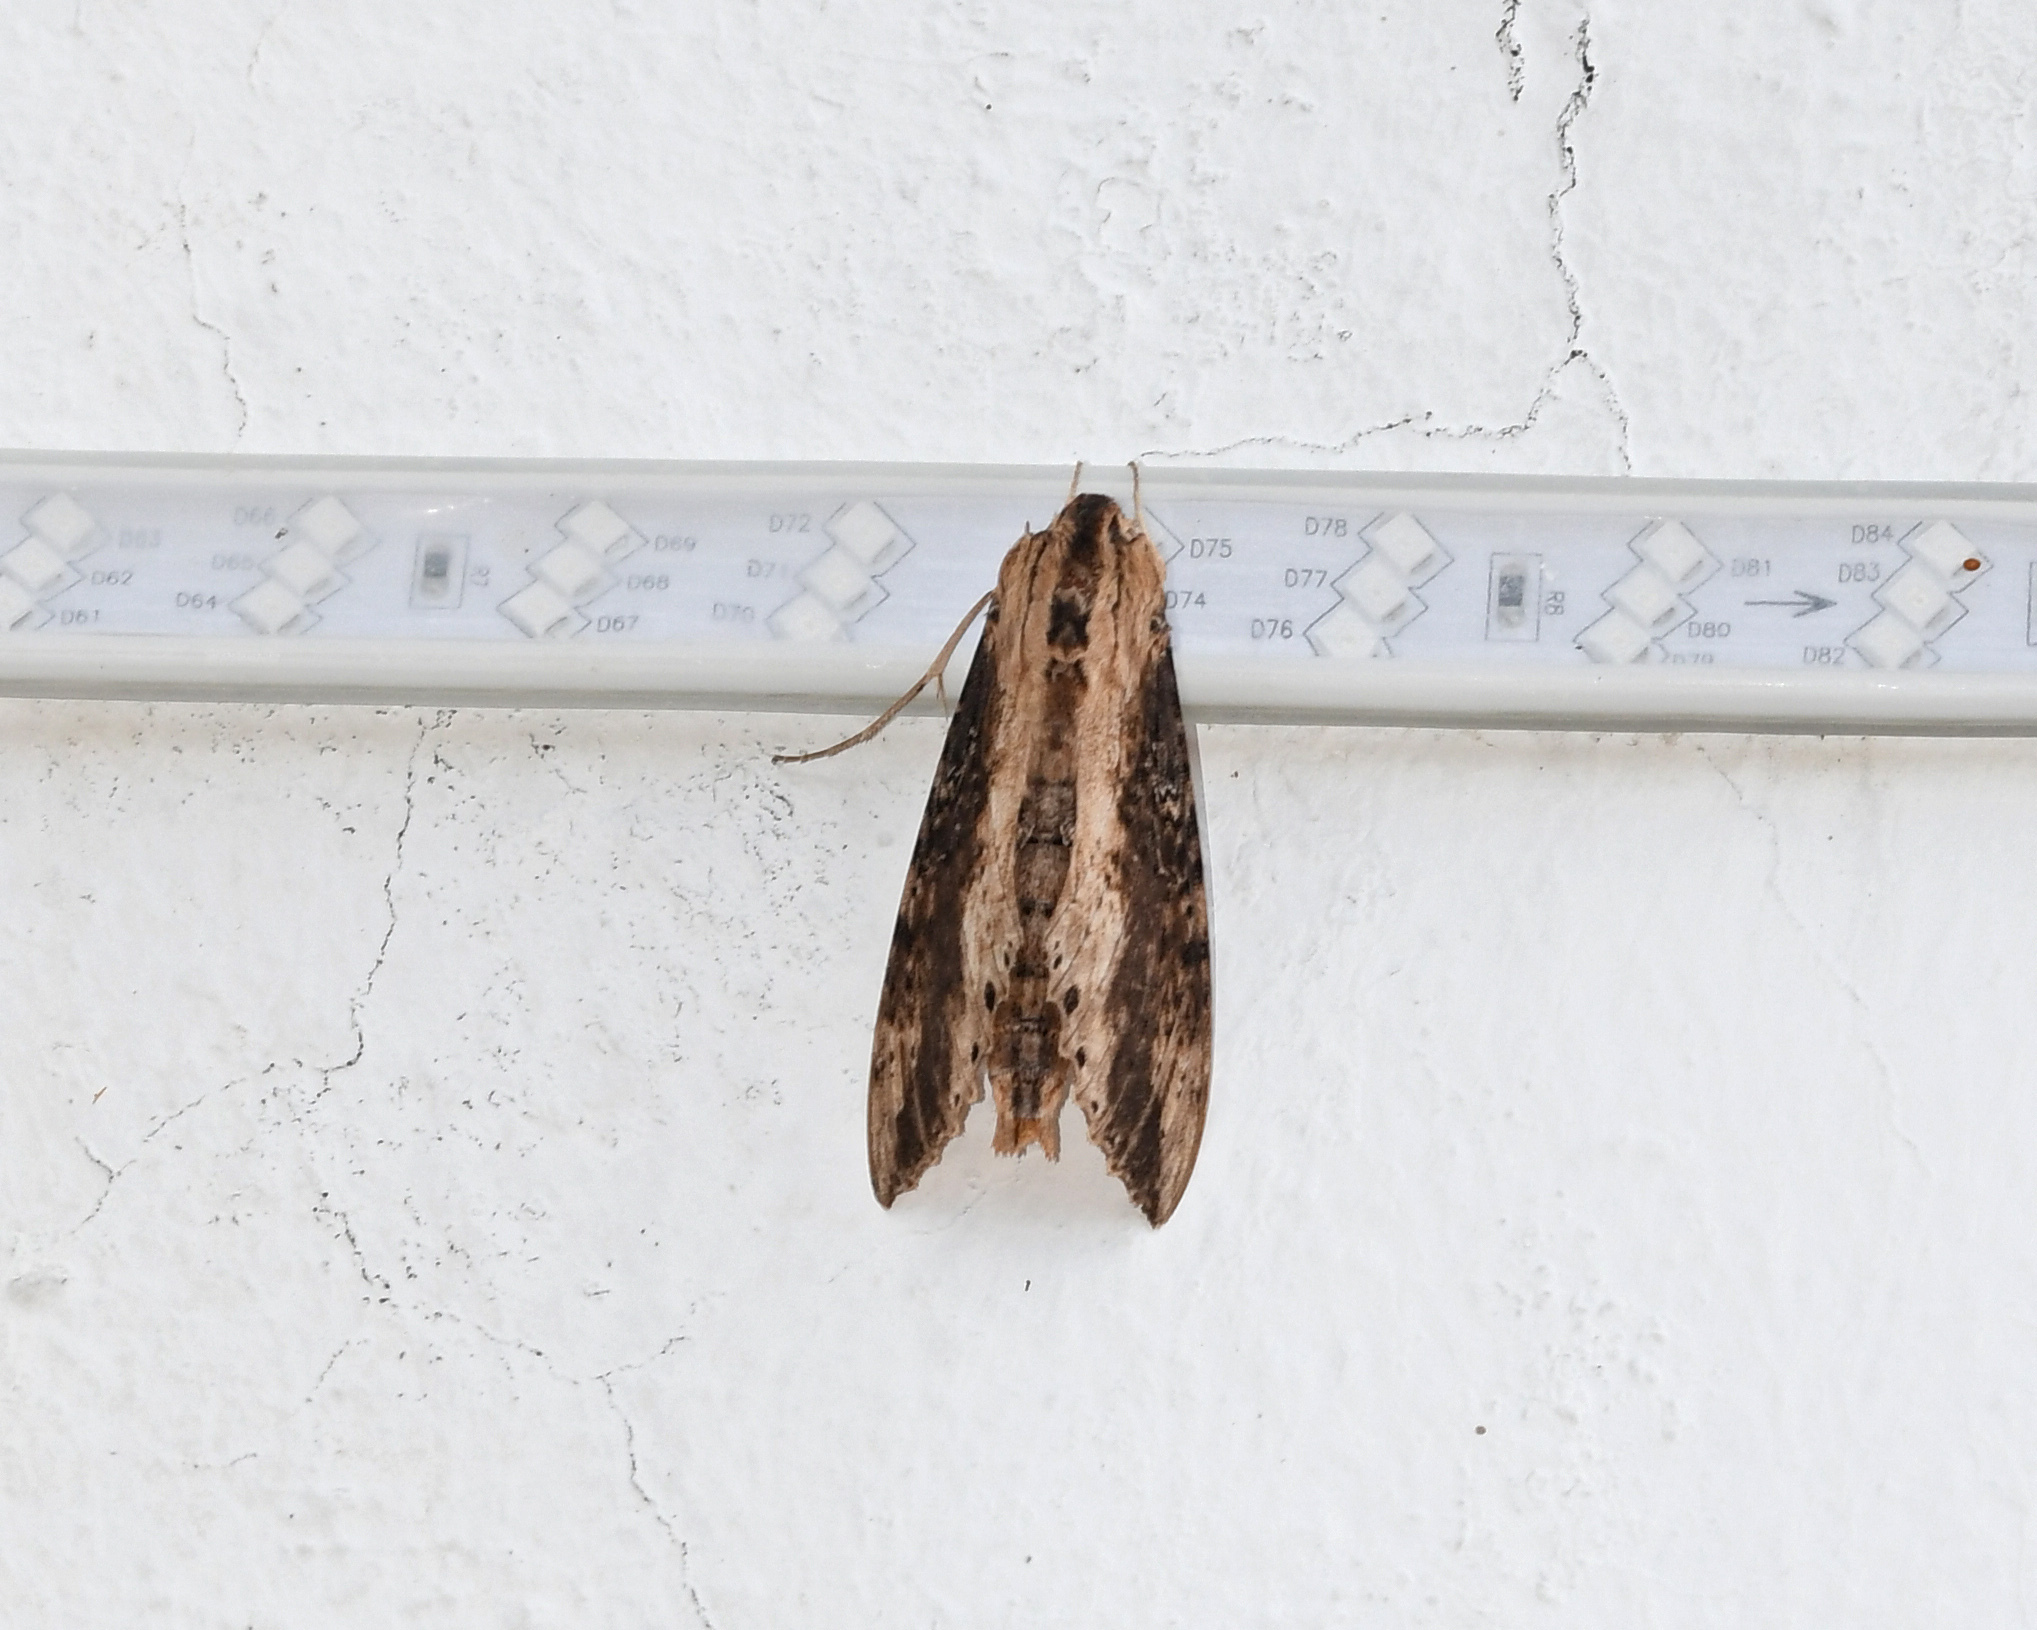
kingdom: Animalia
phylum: Arthropoda
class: Insecta
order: Lepidoptera
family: Sphingidae
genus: Erinnyis
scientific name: Erinnyis crameri
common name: Cramer's sphinx
